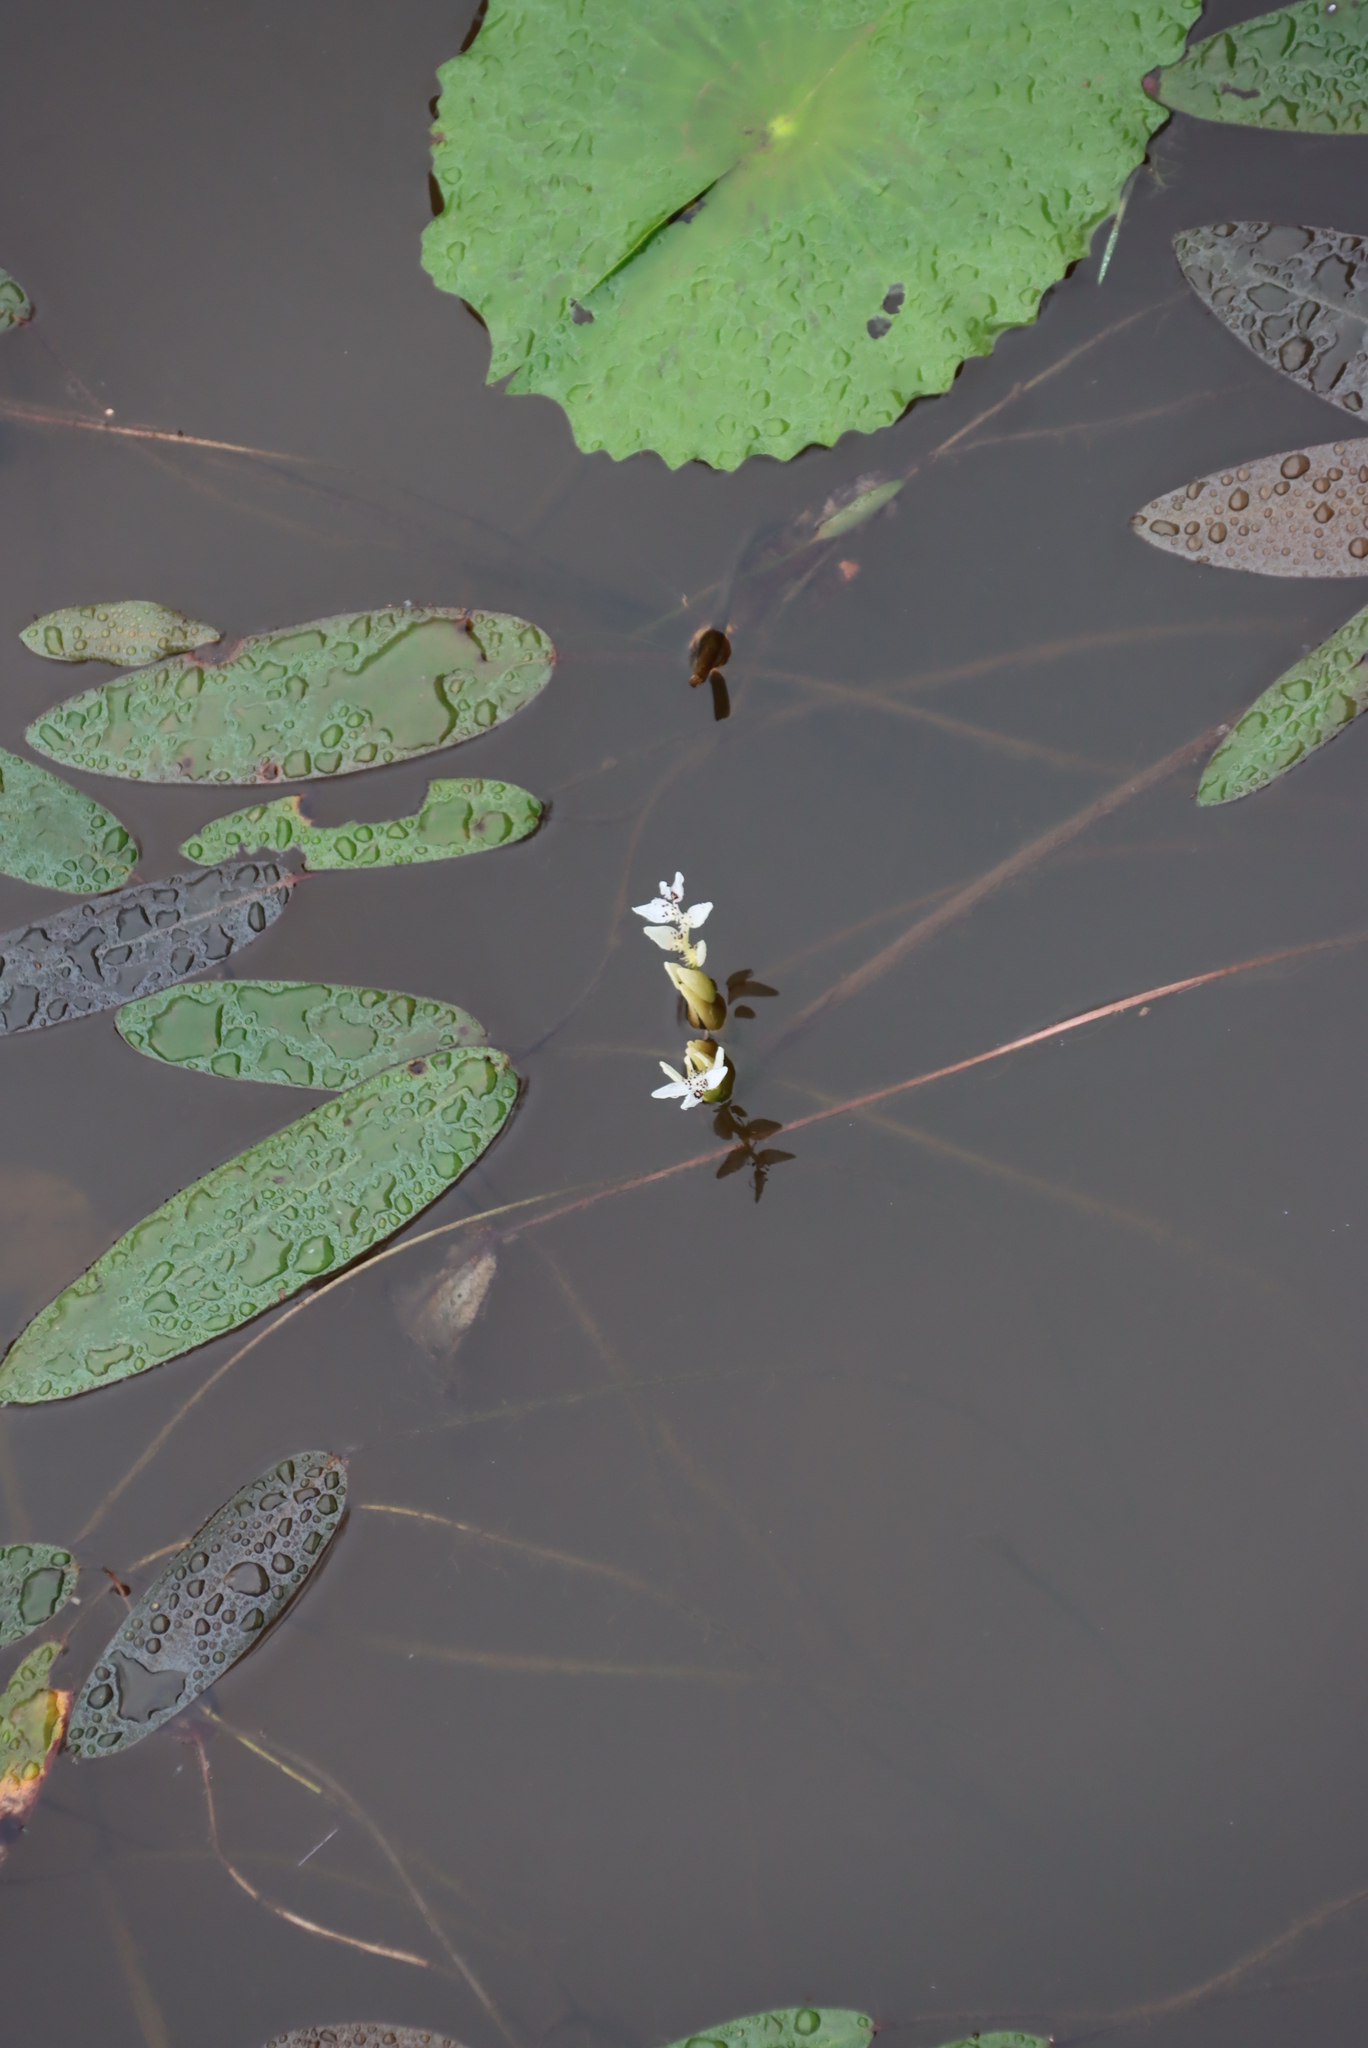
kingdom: Plantae
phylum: Tracheophyta
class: Liliopsida
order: Alismatales
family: Aponogetonaceae
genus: Aponogeton
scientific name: Aponogeton distachyos
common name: Cape-pondweed
